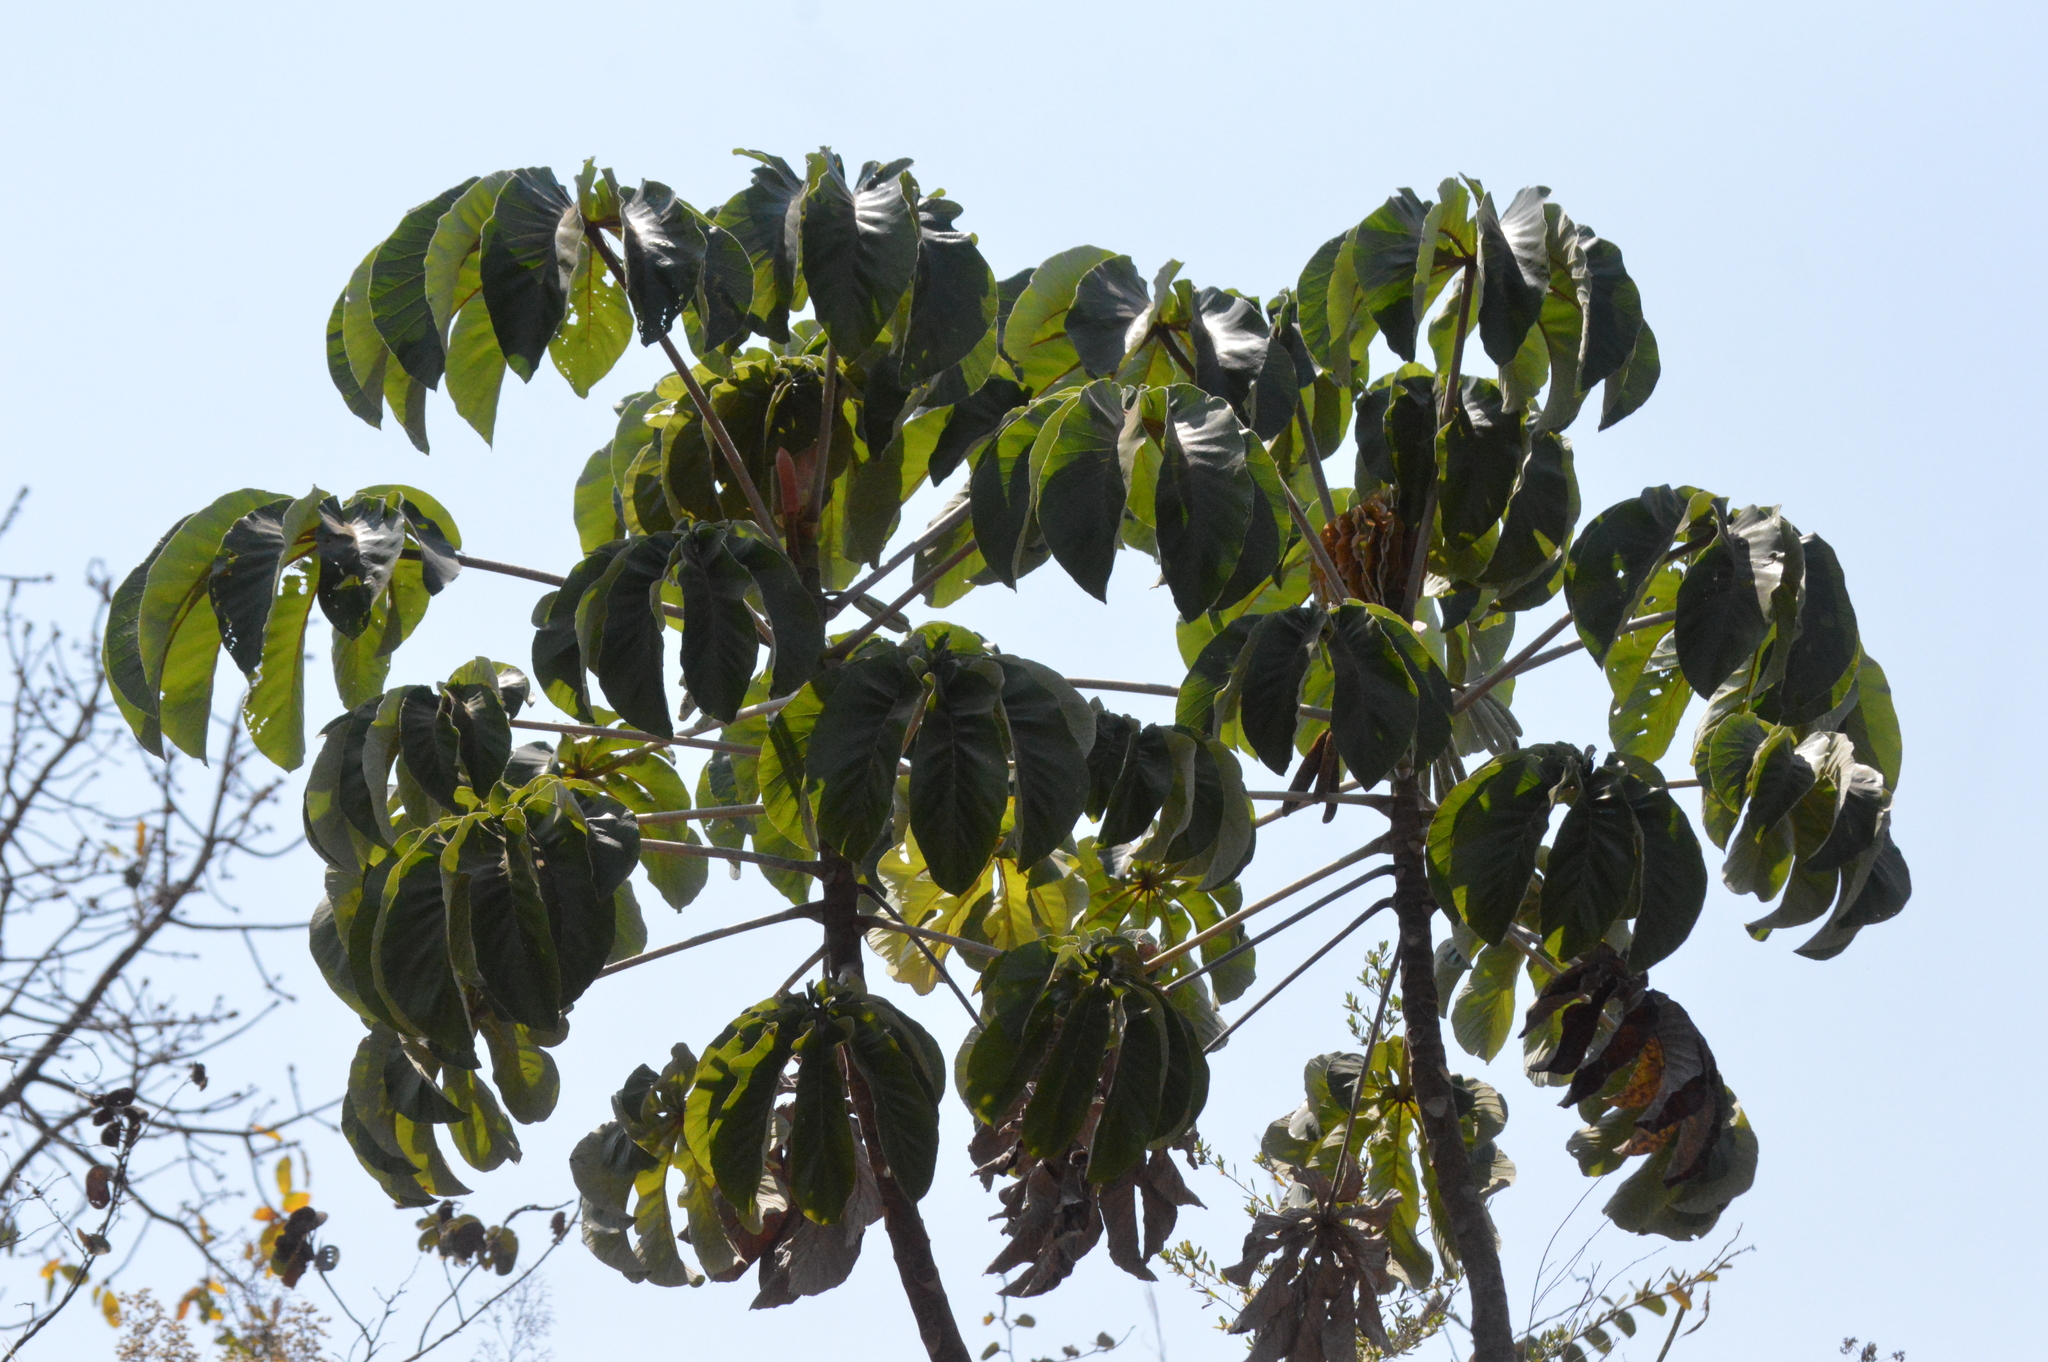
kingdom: Plantae
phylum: Tracheophyta
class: Magnoliopsida
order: Rosales
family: Urticaceae
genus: Cecropia
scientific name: Cecropia pachystachya
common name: Ambay pumpwood
